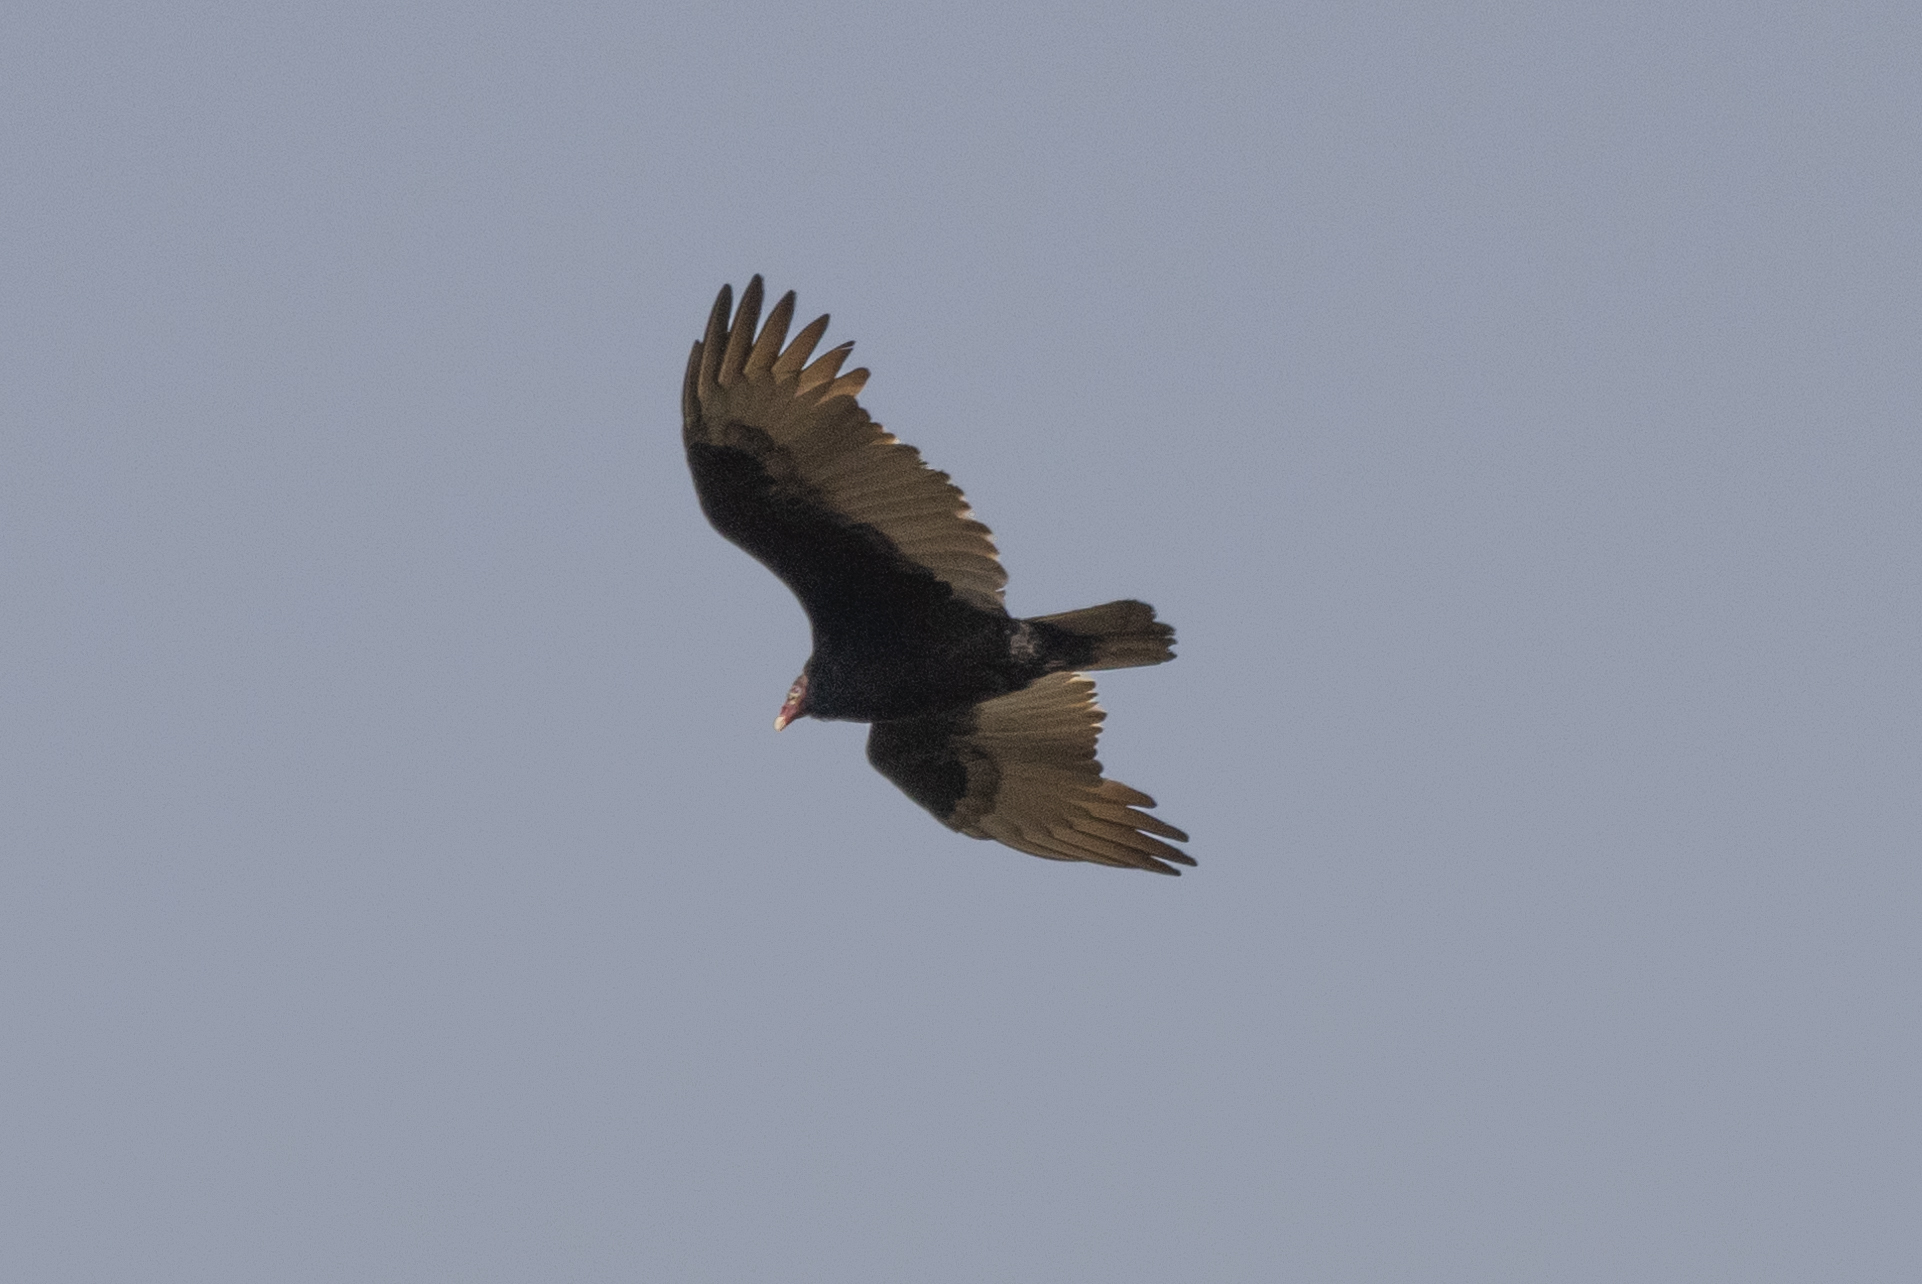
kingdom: Animalia
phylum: Chordata
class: Aves
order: Accipitriformes
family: Cathartidae
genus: Cathartes
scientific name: Cathartes aura
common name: Turkey vulture
